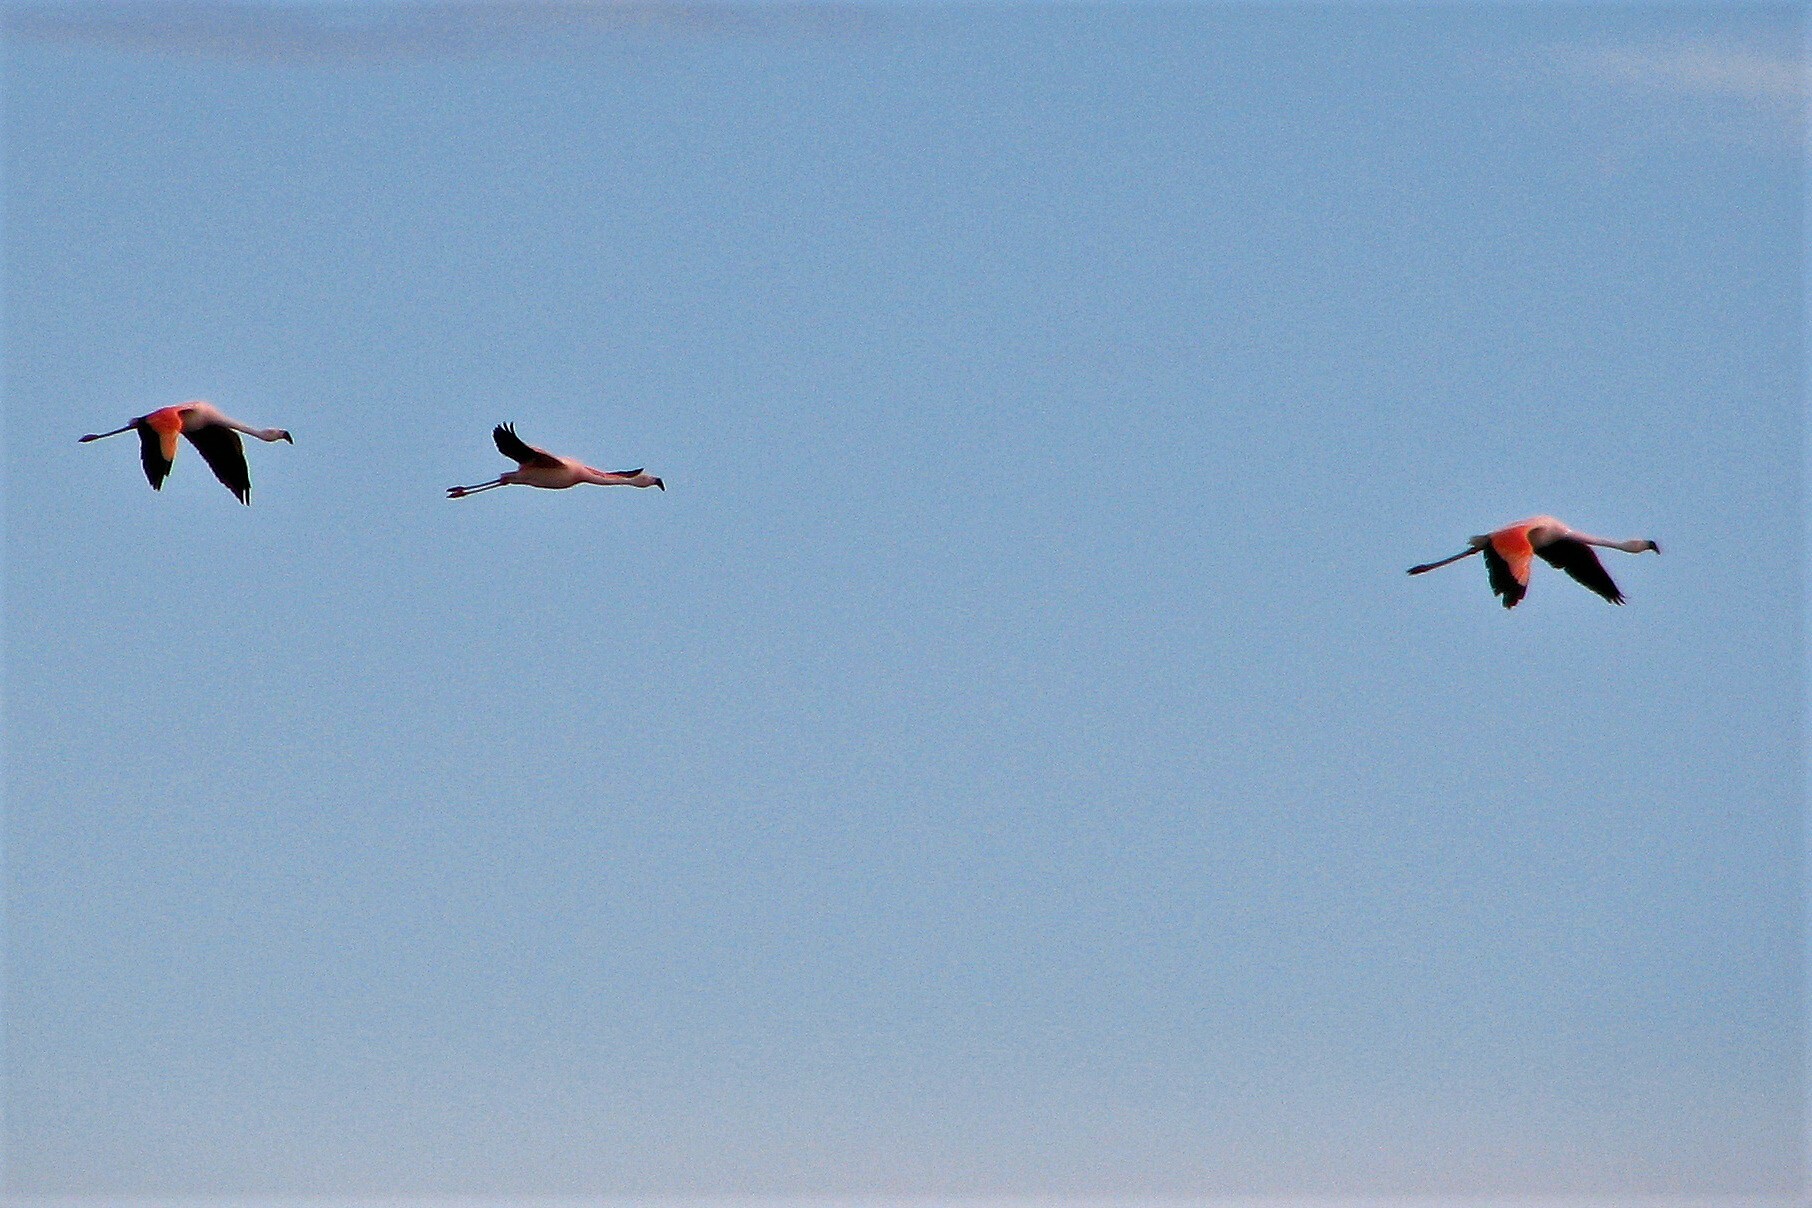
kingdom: Animalia
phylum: Chordata
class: Aves
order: Phoenicopteriformes
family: Phoenicopteridae
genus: Phoenicopterus
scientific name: Phoenicopterus chilensis
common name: Chilean flamingo
